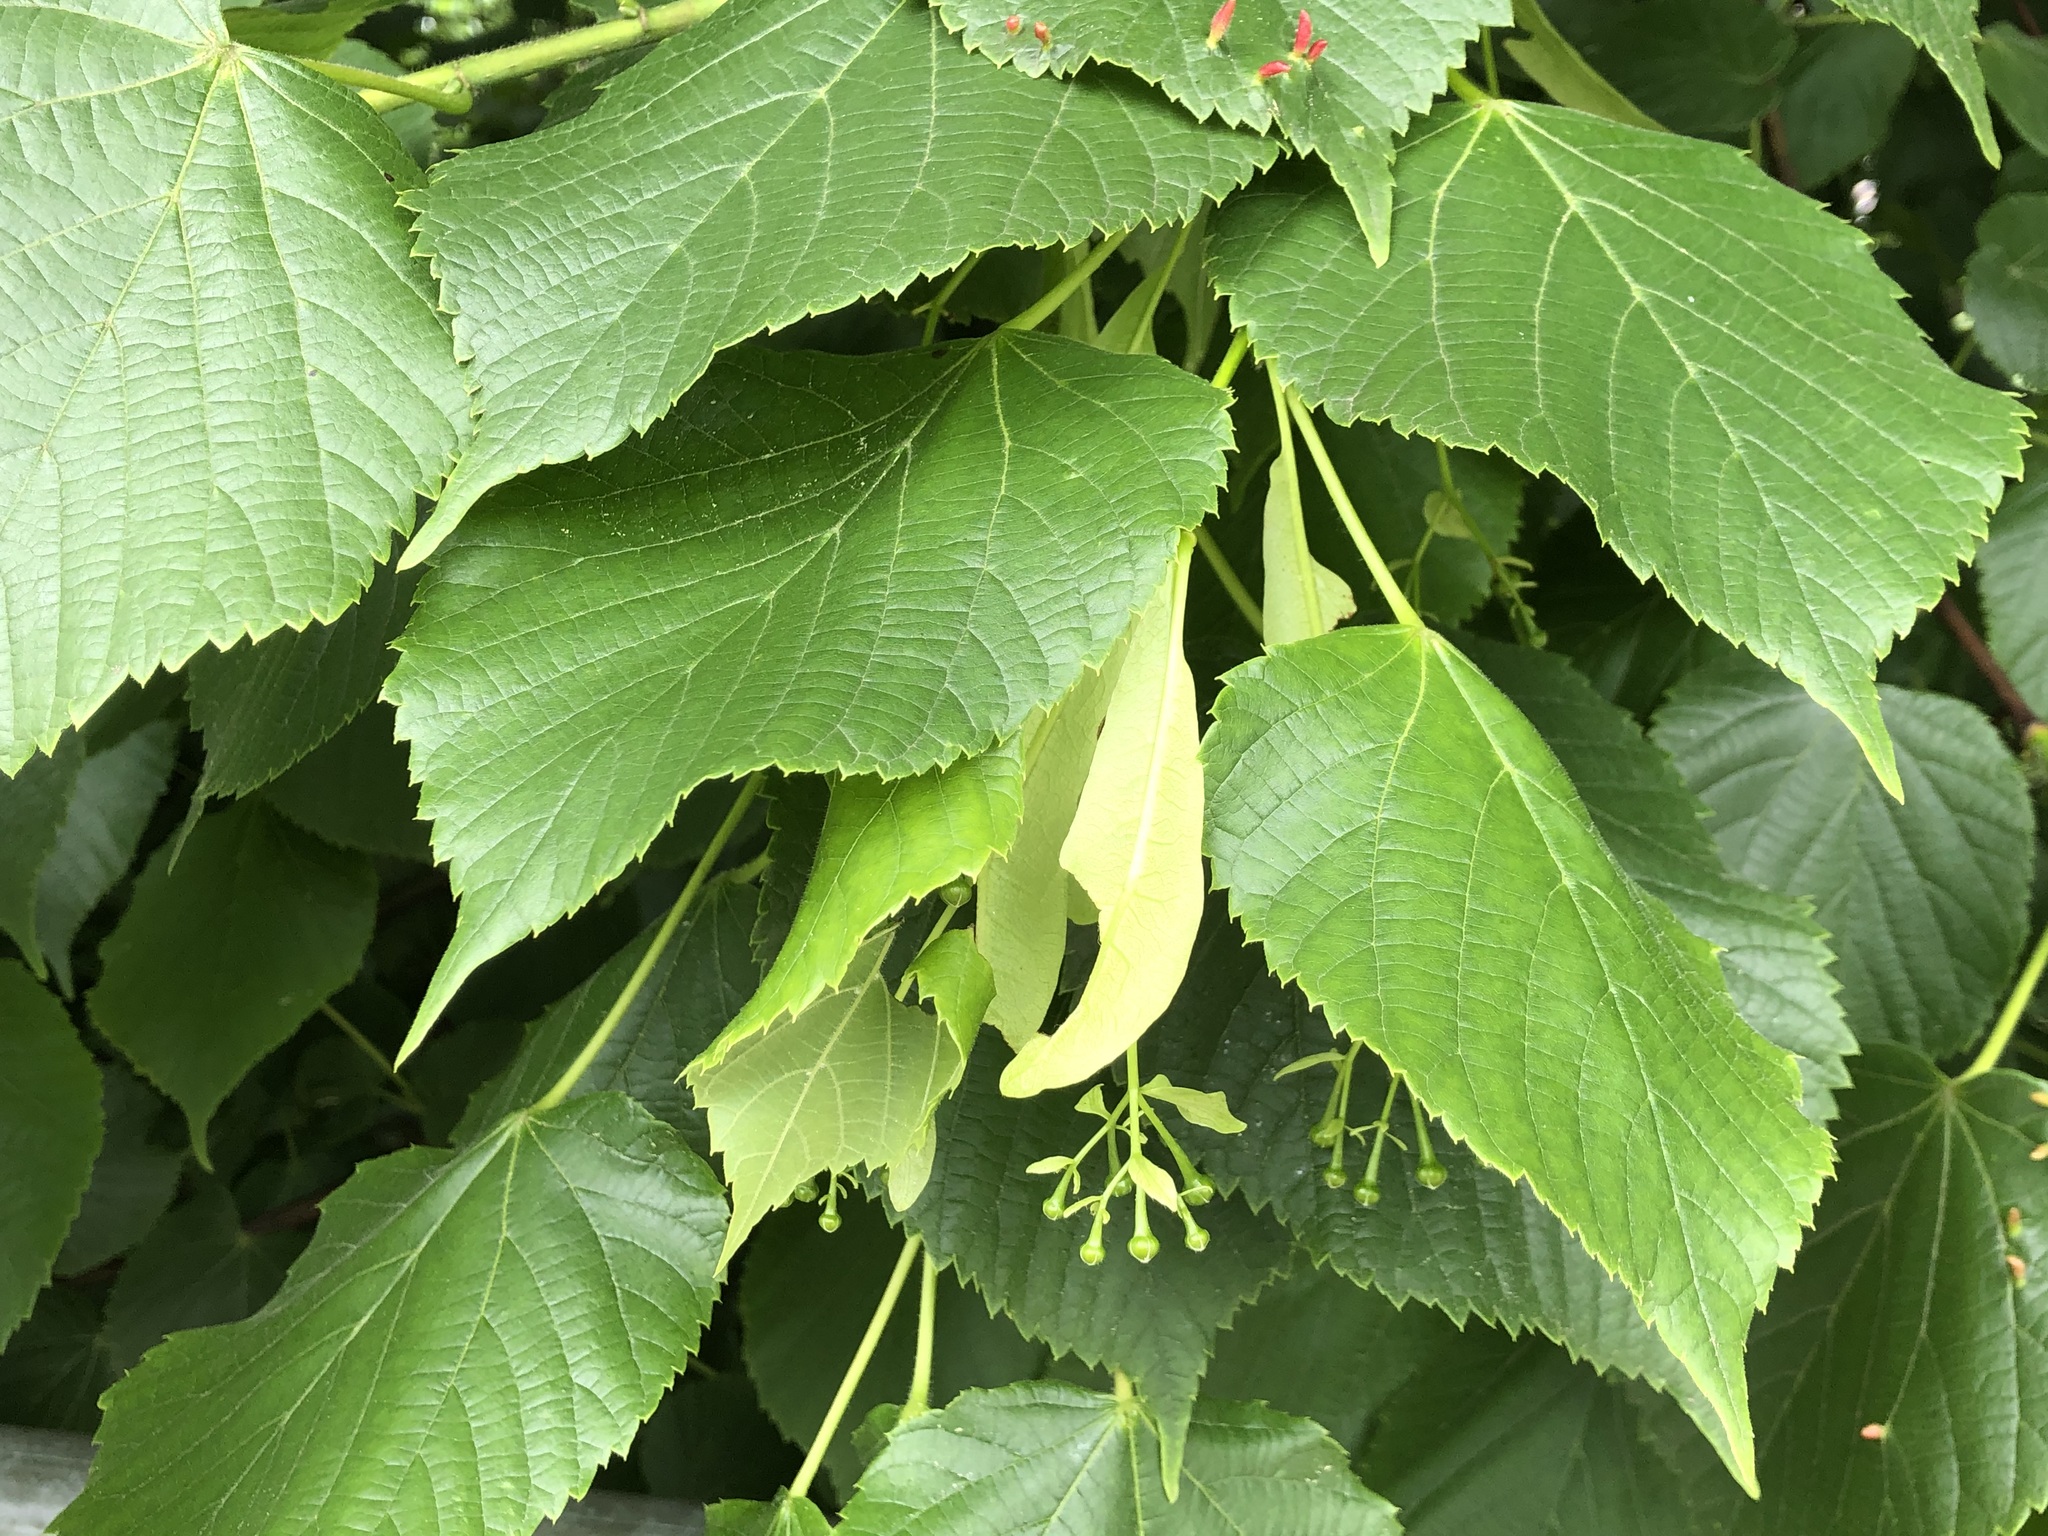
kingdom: Plantae
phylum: Tracheophyta
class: Magnoliopsida
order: Malvales
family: Malvaceae
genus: Tilia
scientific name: Tilia platyphyllos
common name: Large-leaved lime
